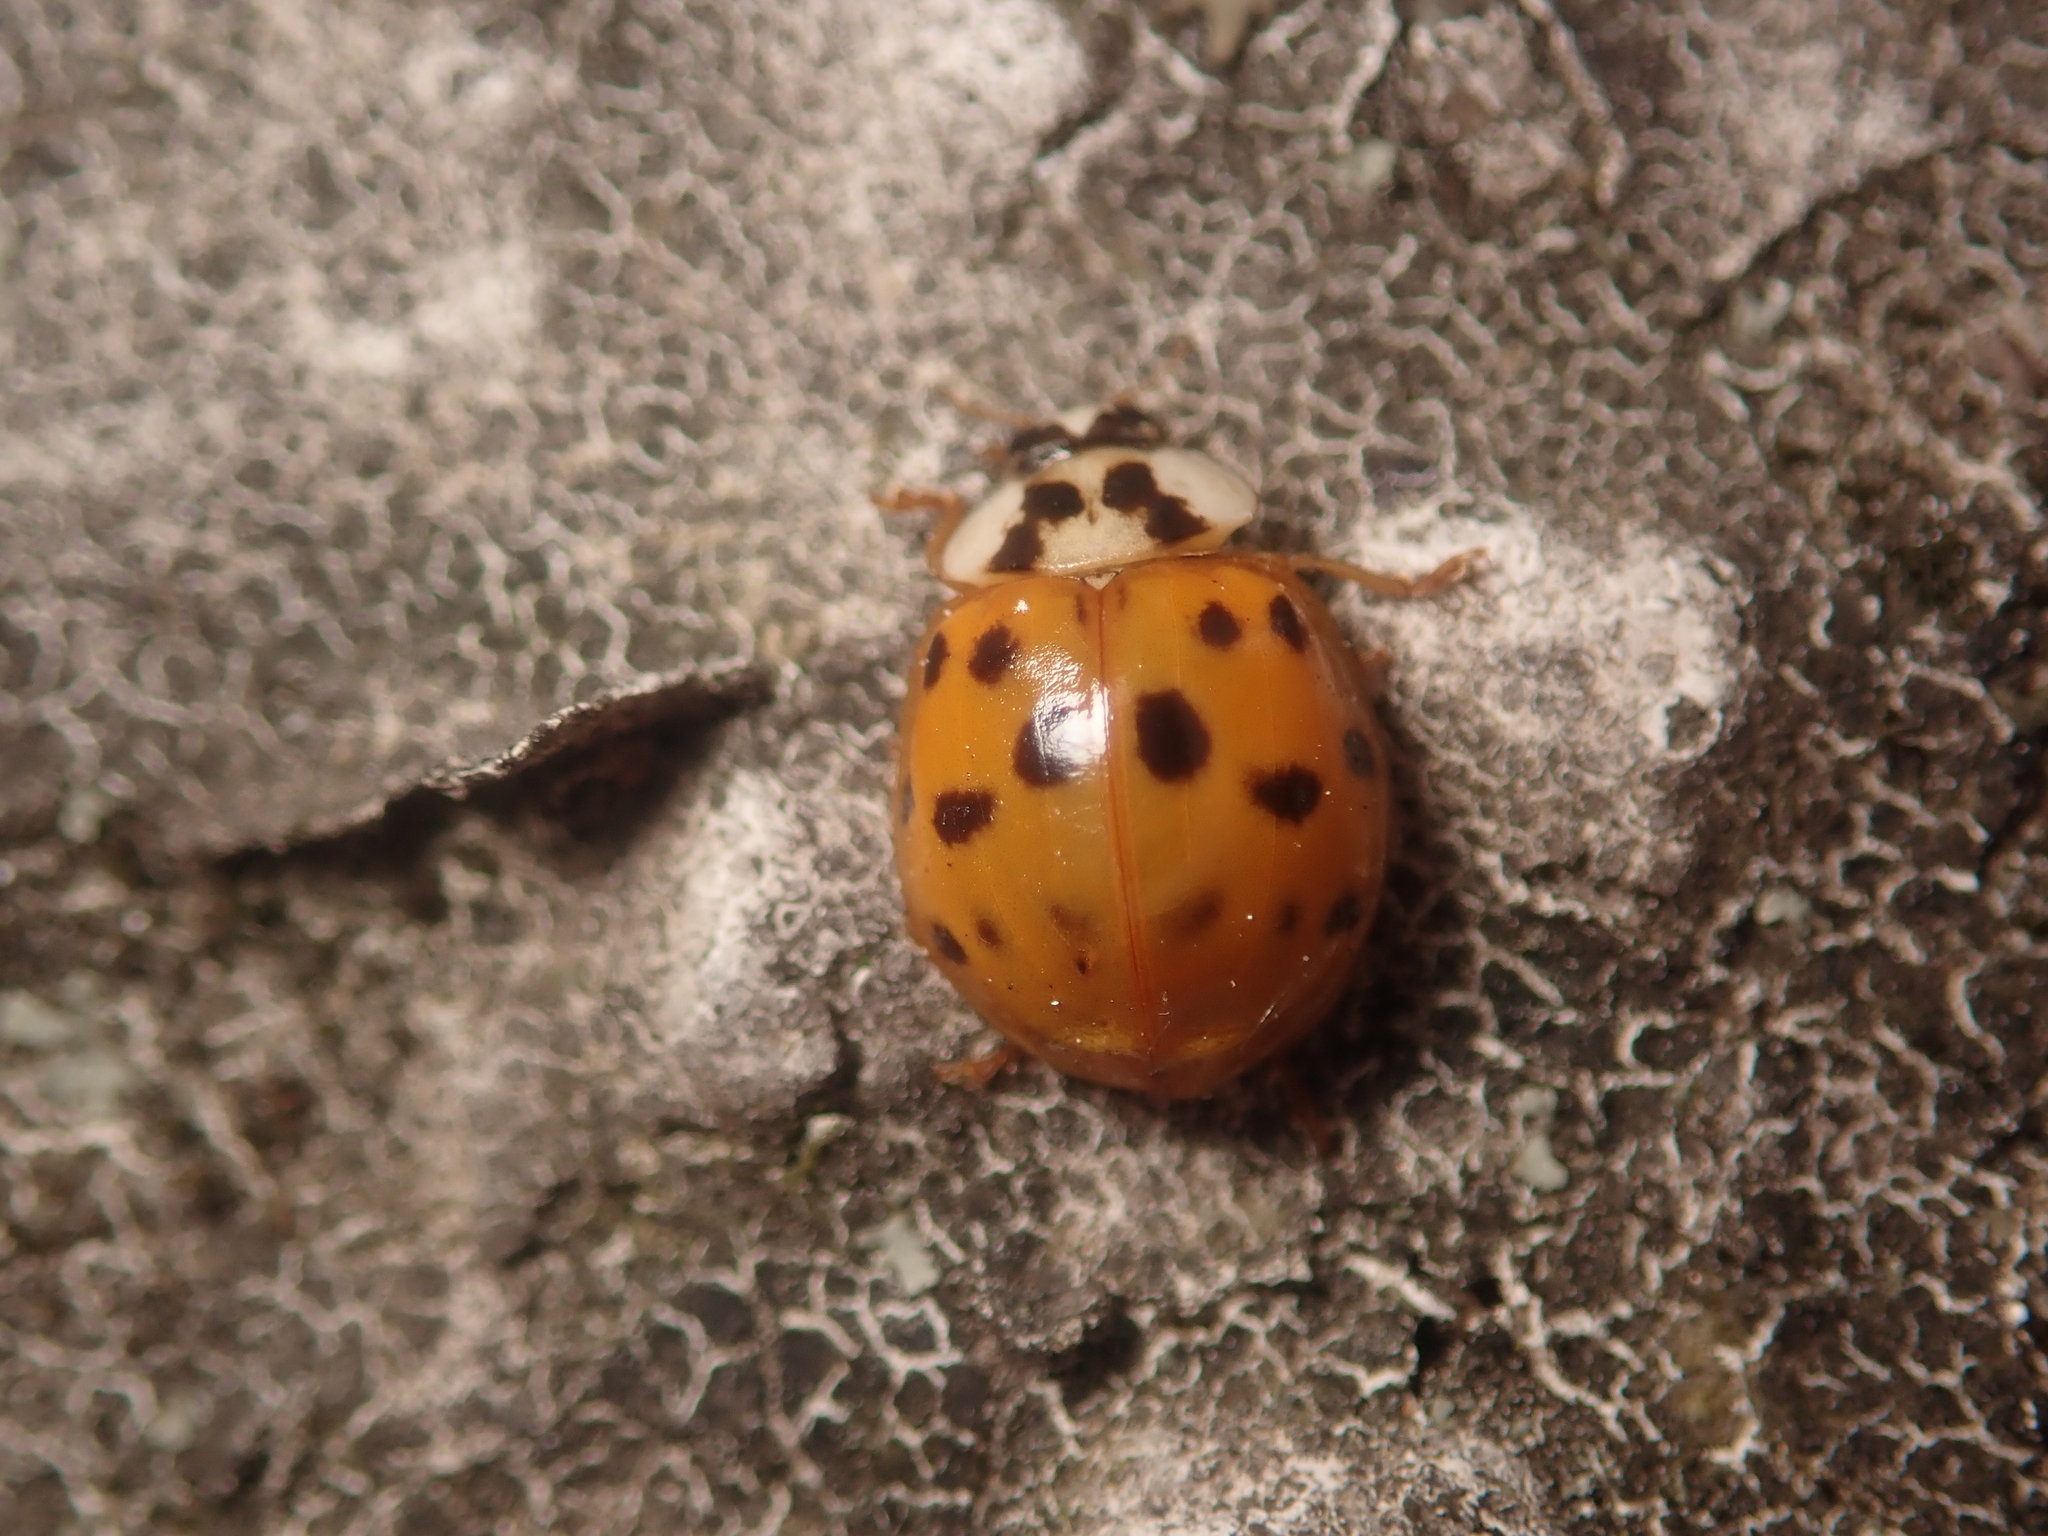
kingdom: Animalia
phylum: Arthropoda
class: Insecta
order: Coleoptera
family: Coccinellidae
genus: Harmonia
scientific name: Harmonia axyridis
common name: Harlequin ladybird
